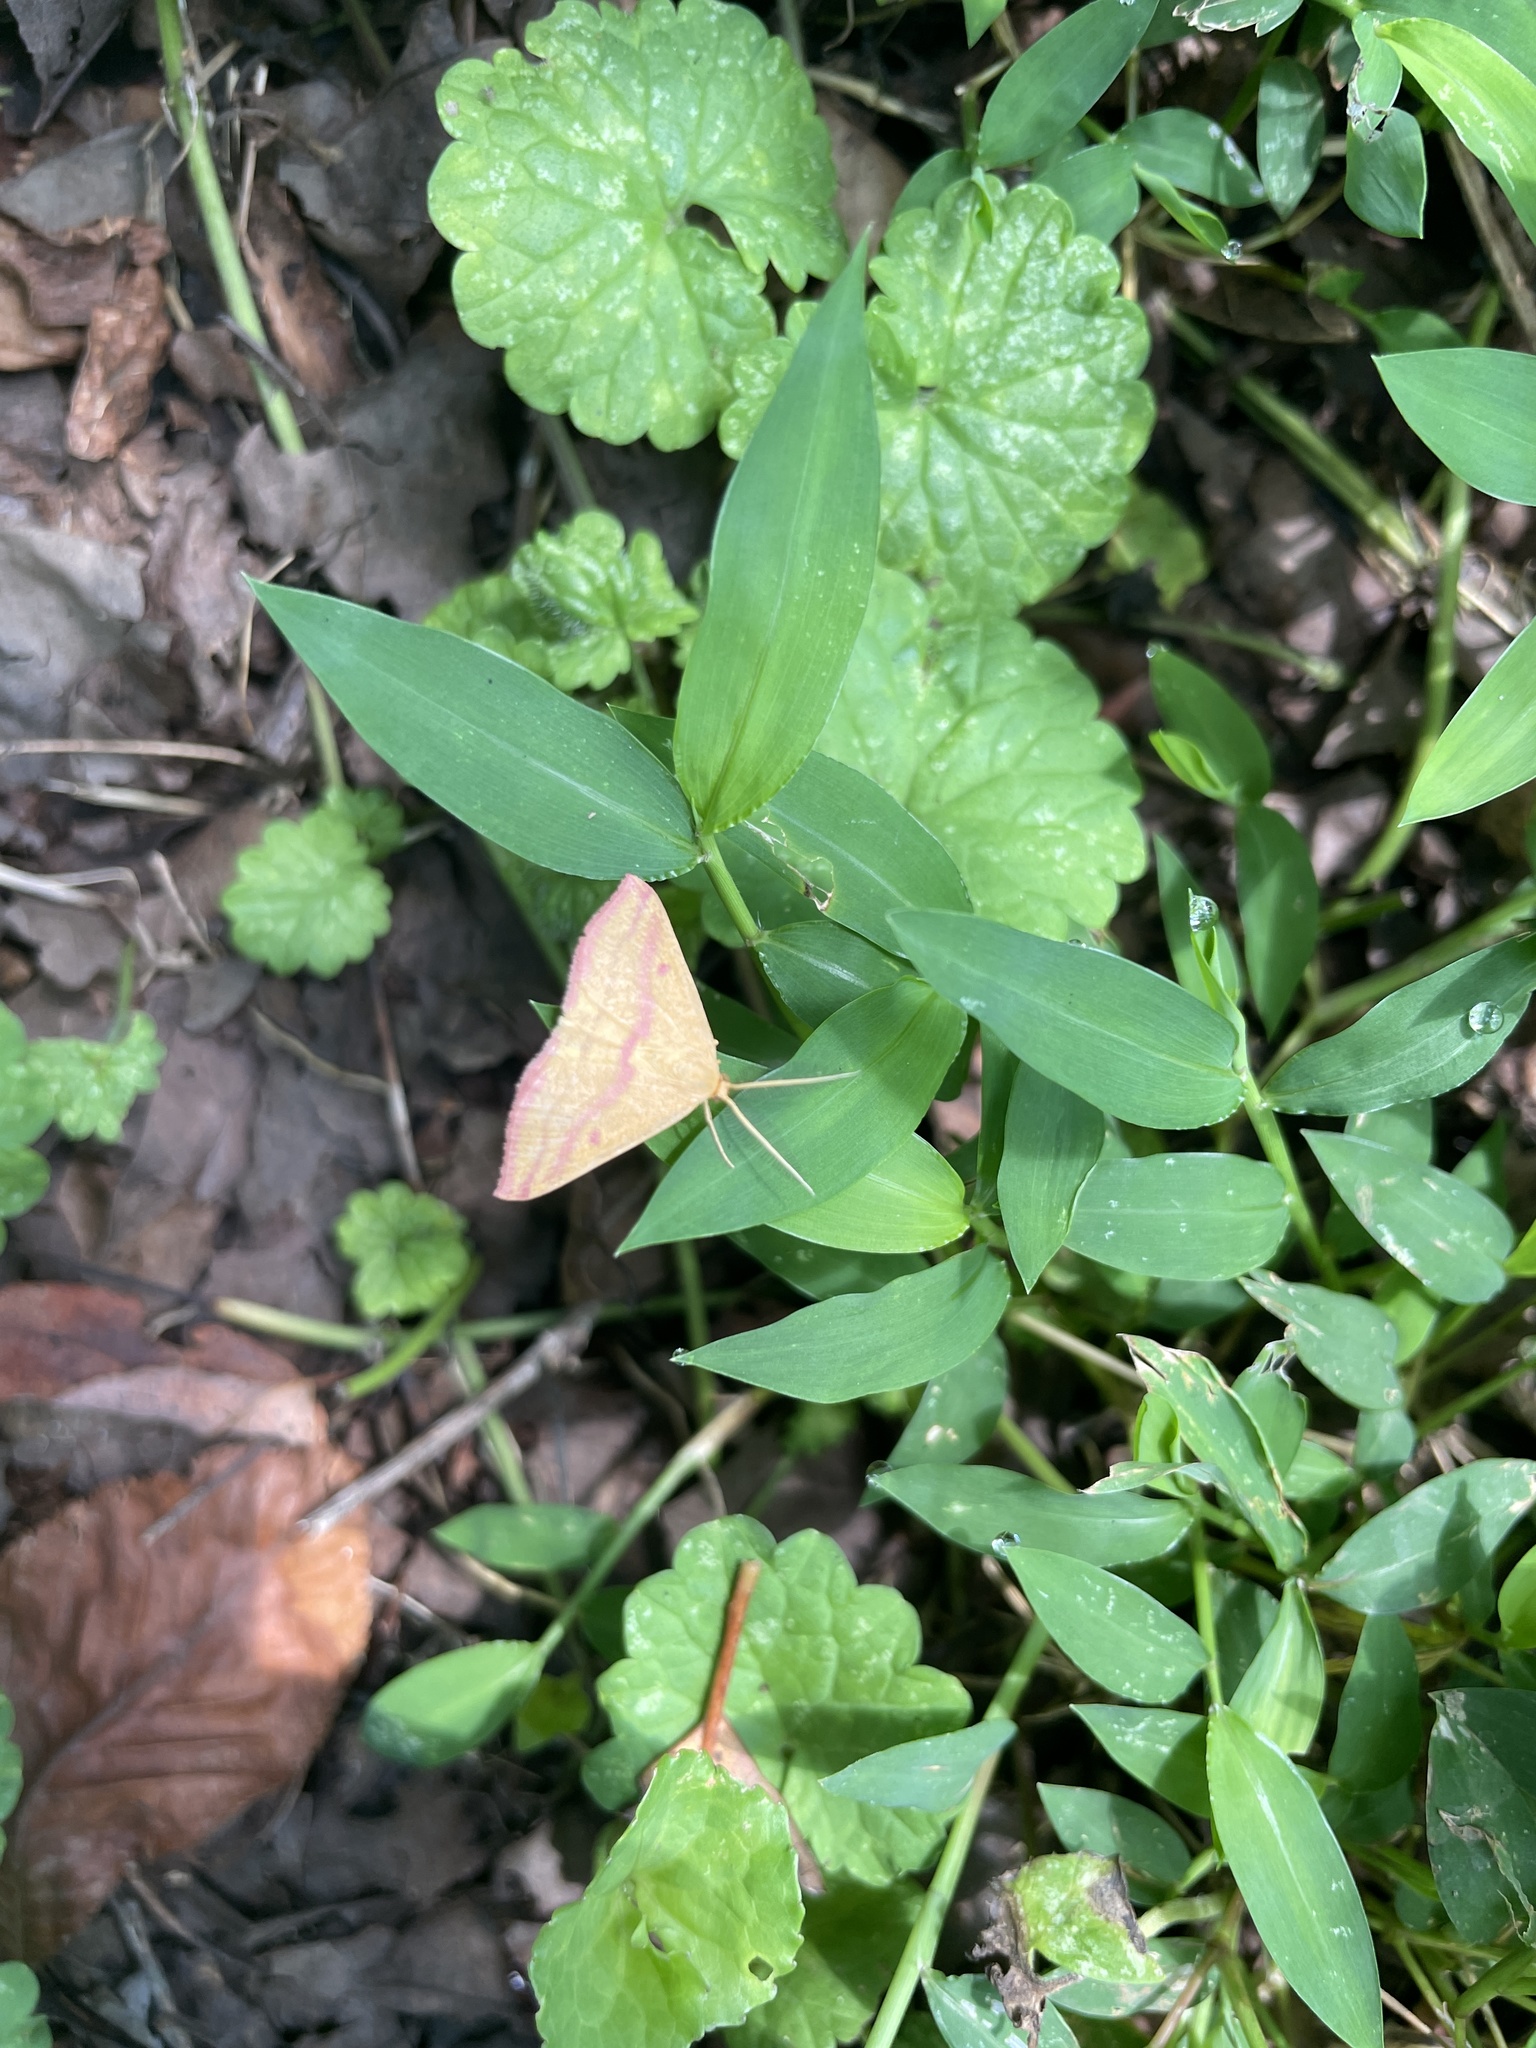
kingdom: Animalia
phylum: Arthropoda
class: Insecta
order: Lepidoptera
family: Geometridae
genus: Haematopis
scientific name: Haematopis grataria
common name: Chickweed geometer
